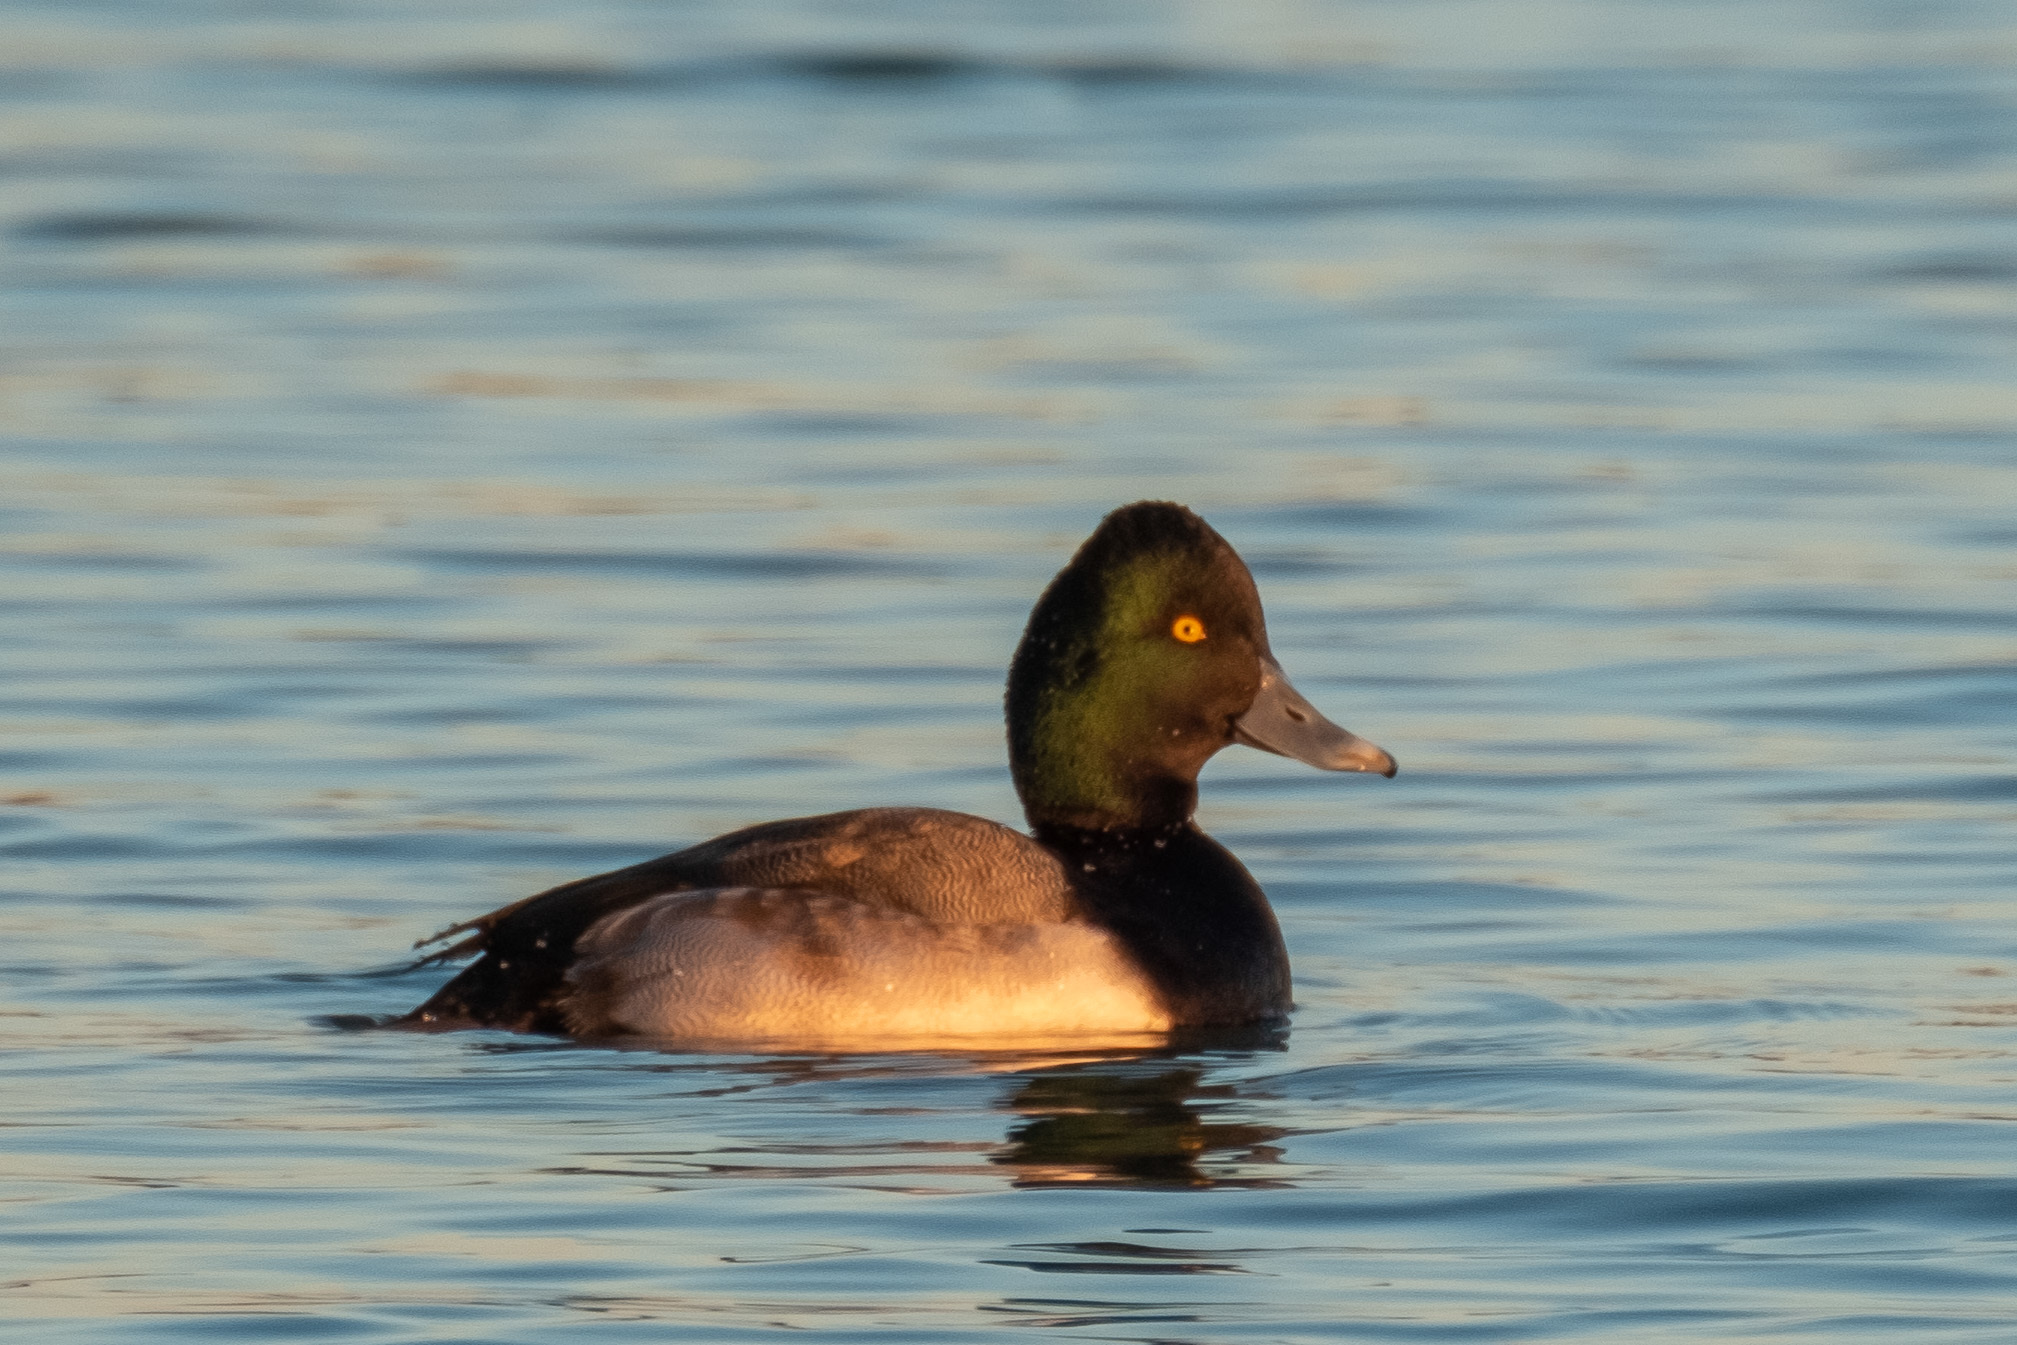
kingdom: Animalia
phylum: Chordata
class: Aves
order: Anseriformes
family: Anatidae
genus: Aythya
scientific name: Aythya affinis
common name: Lesser scaup
